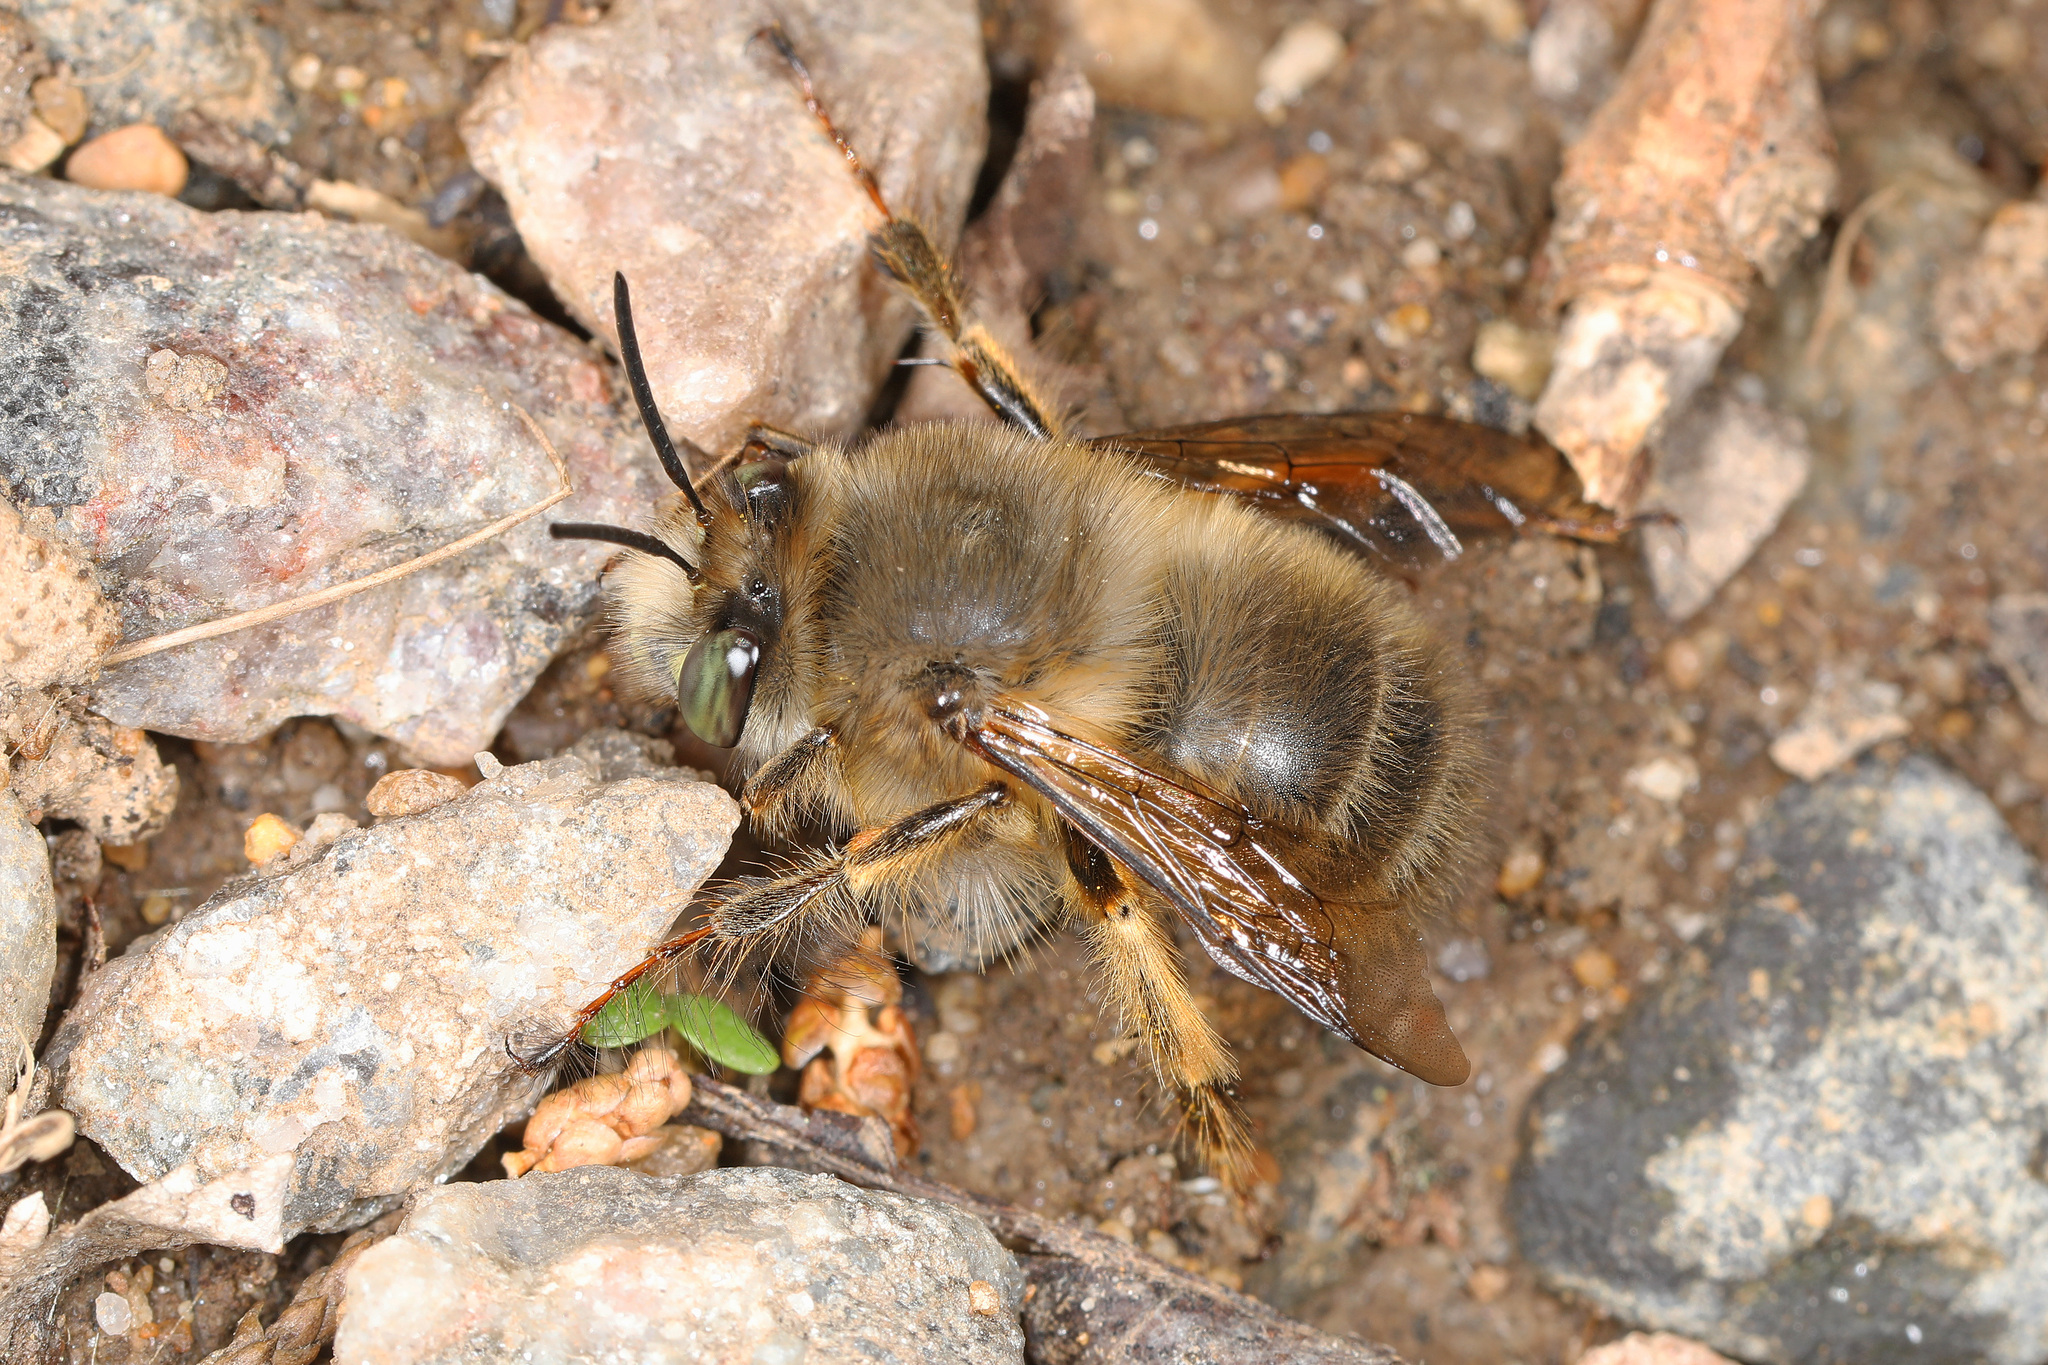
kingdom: Animalia
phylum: Arthropoda
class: Insecta
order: Hymenoptera
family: Apidae
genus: Anthophora
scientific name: Anthophora villosula
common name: Asian shaggy digger
